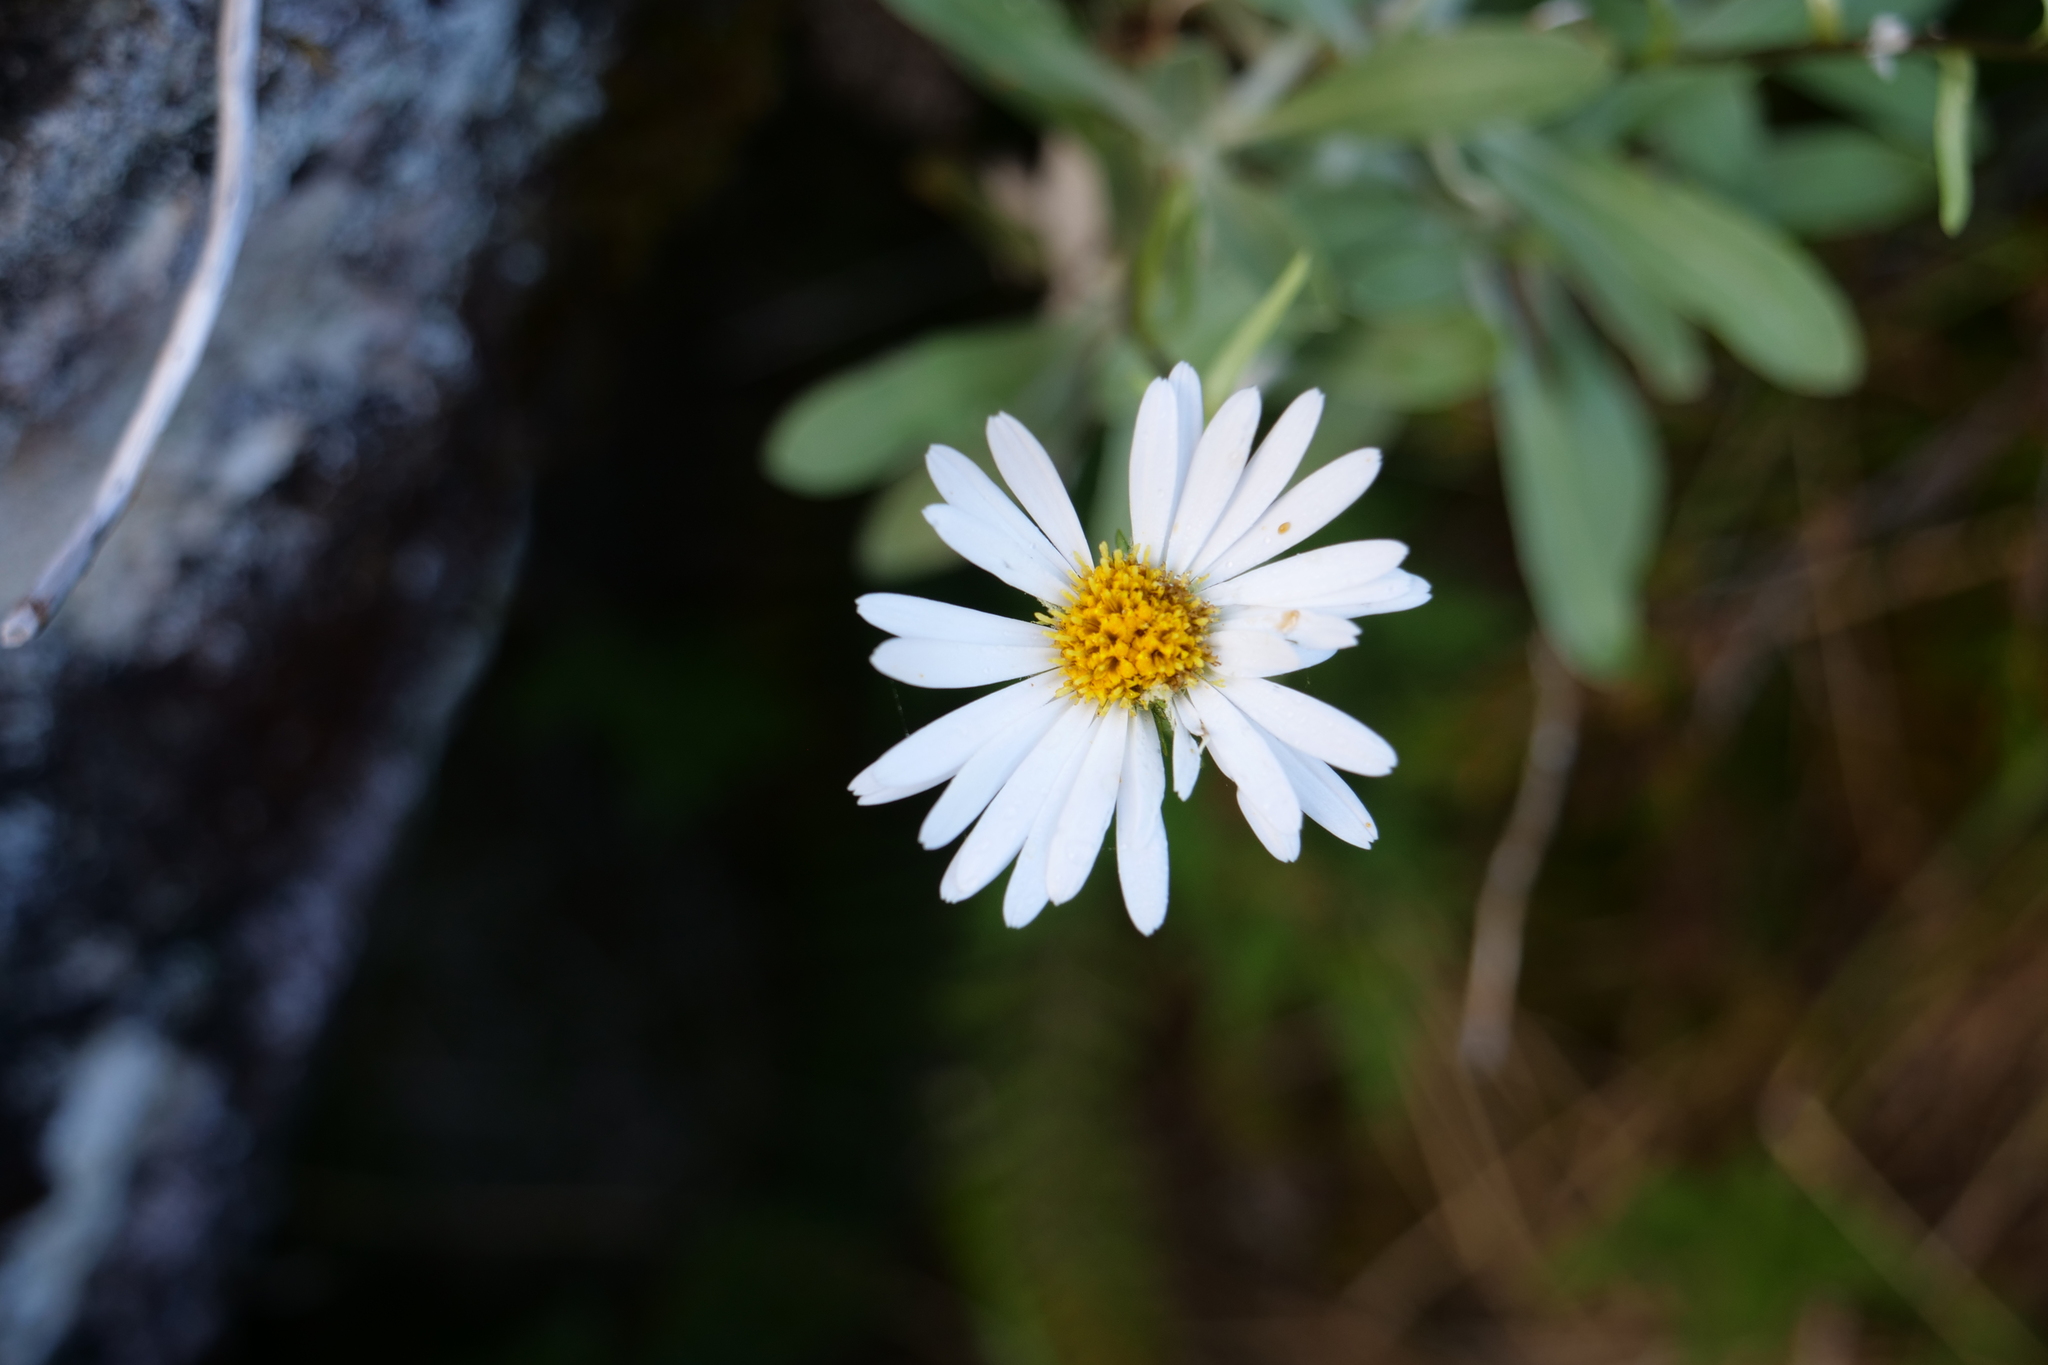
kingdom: Plantae
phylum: Tracheophyta
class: Magnoliopsida
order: Asterales
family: Asteraceae
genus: Celmisia
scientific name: Celmisia durietzii
